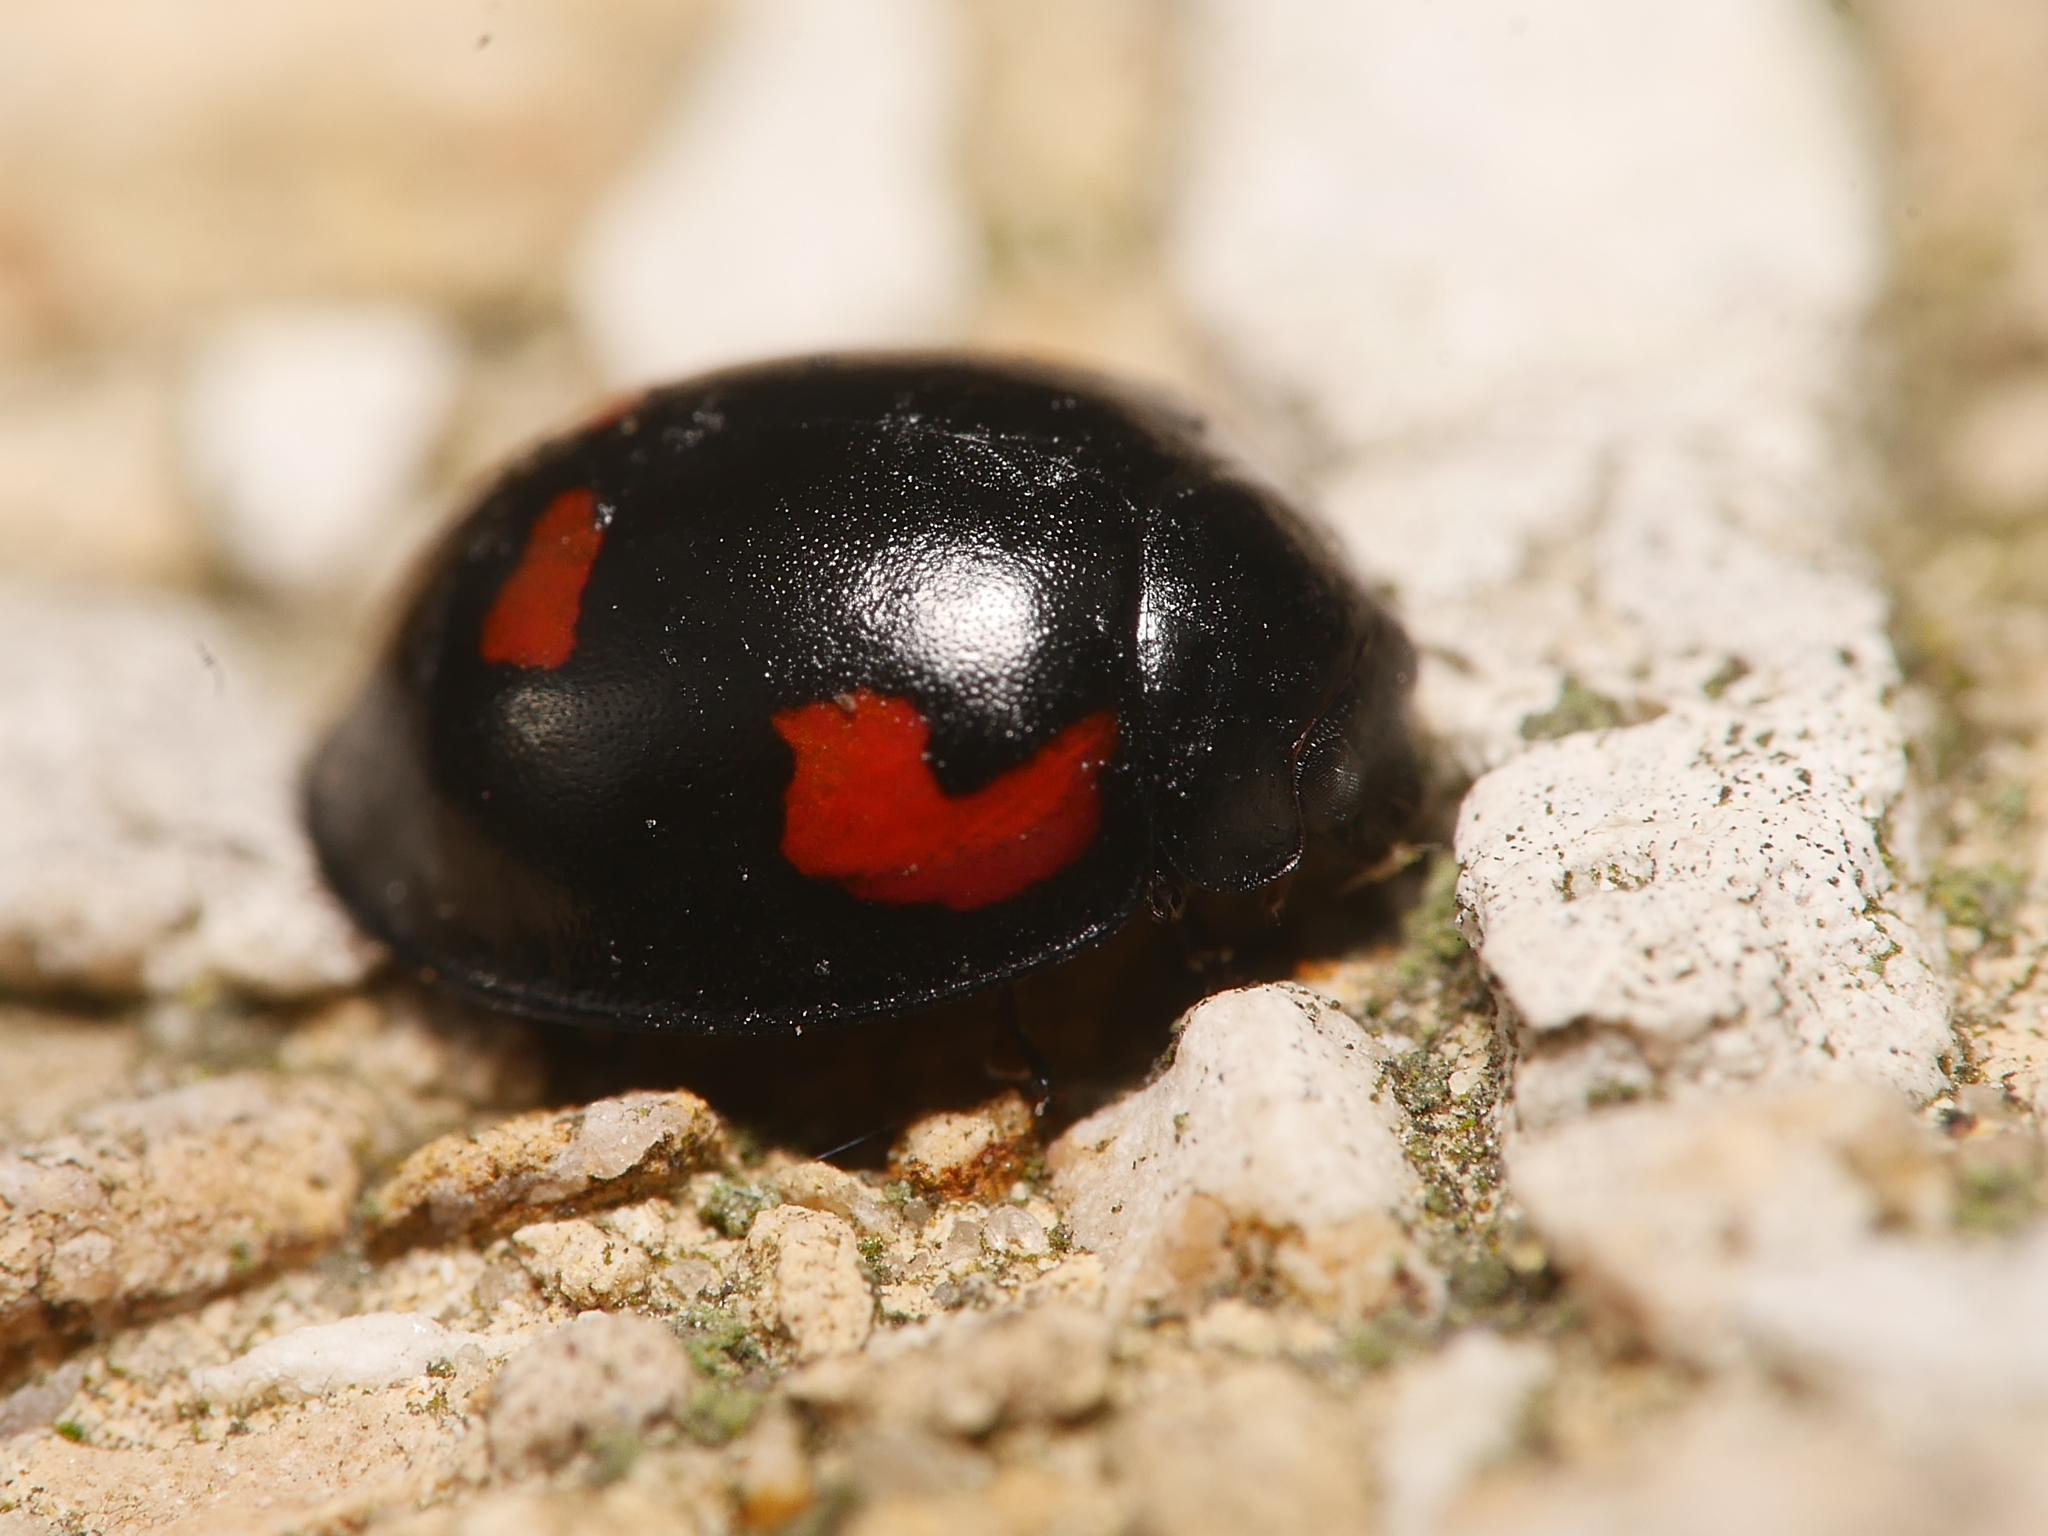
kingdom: Animalia
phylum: Arthropoda
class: Insecta
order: Coleoptera
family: Coccinellidae
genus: Brumus
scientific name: Brumus quadripustulatus
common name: Ladybird beetle
